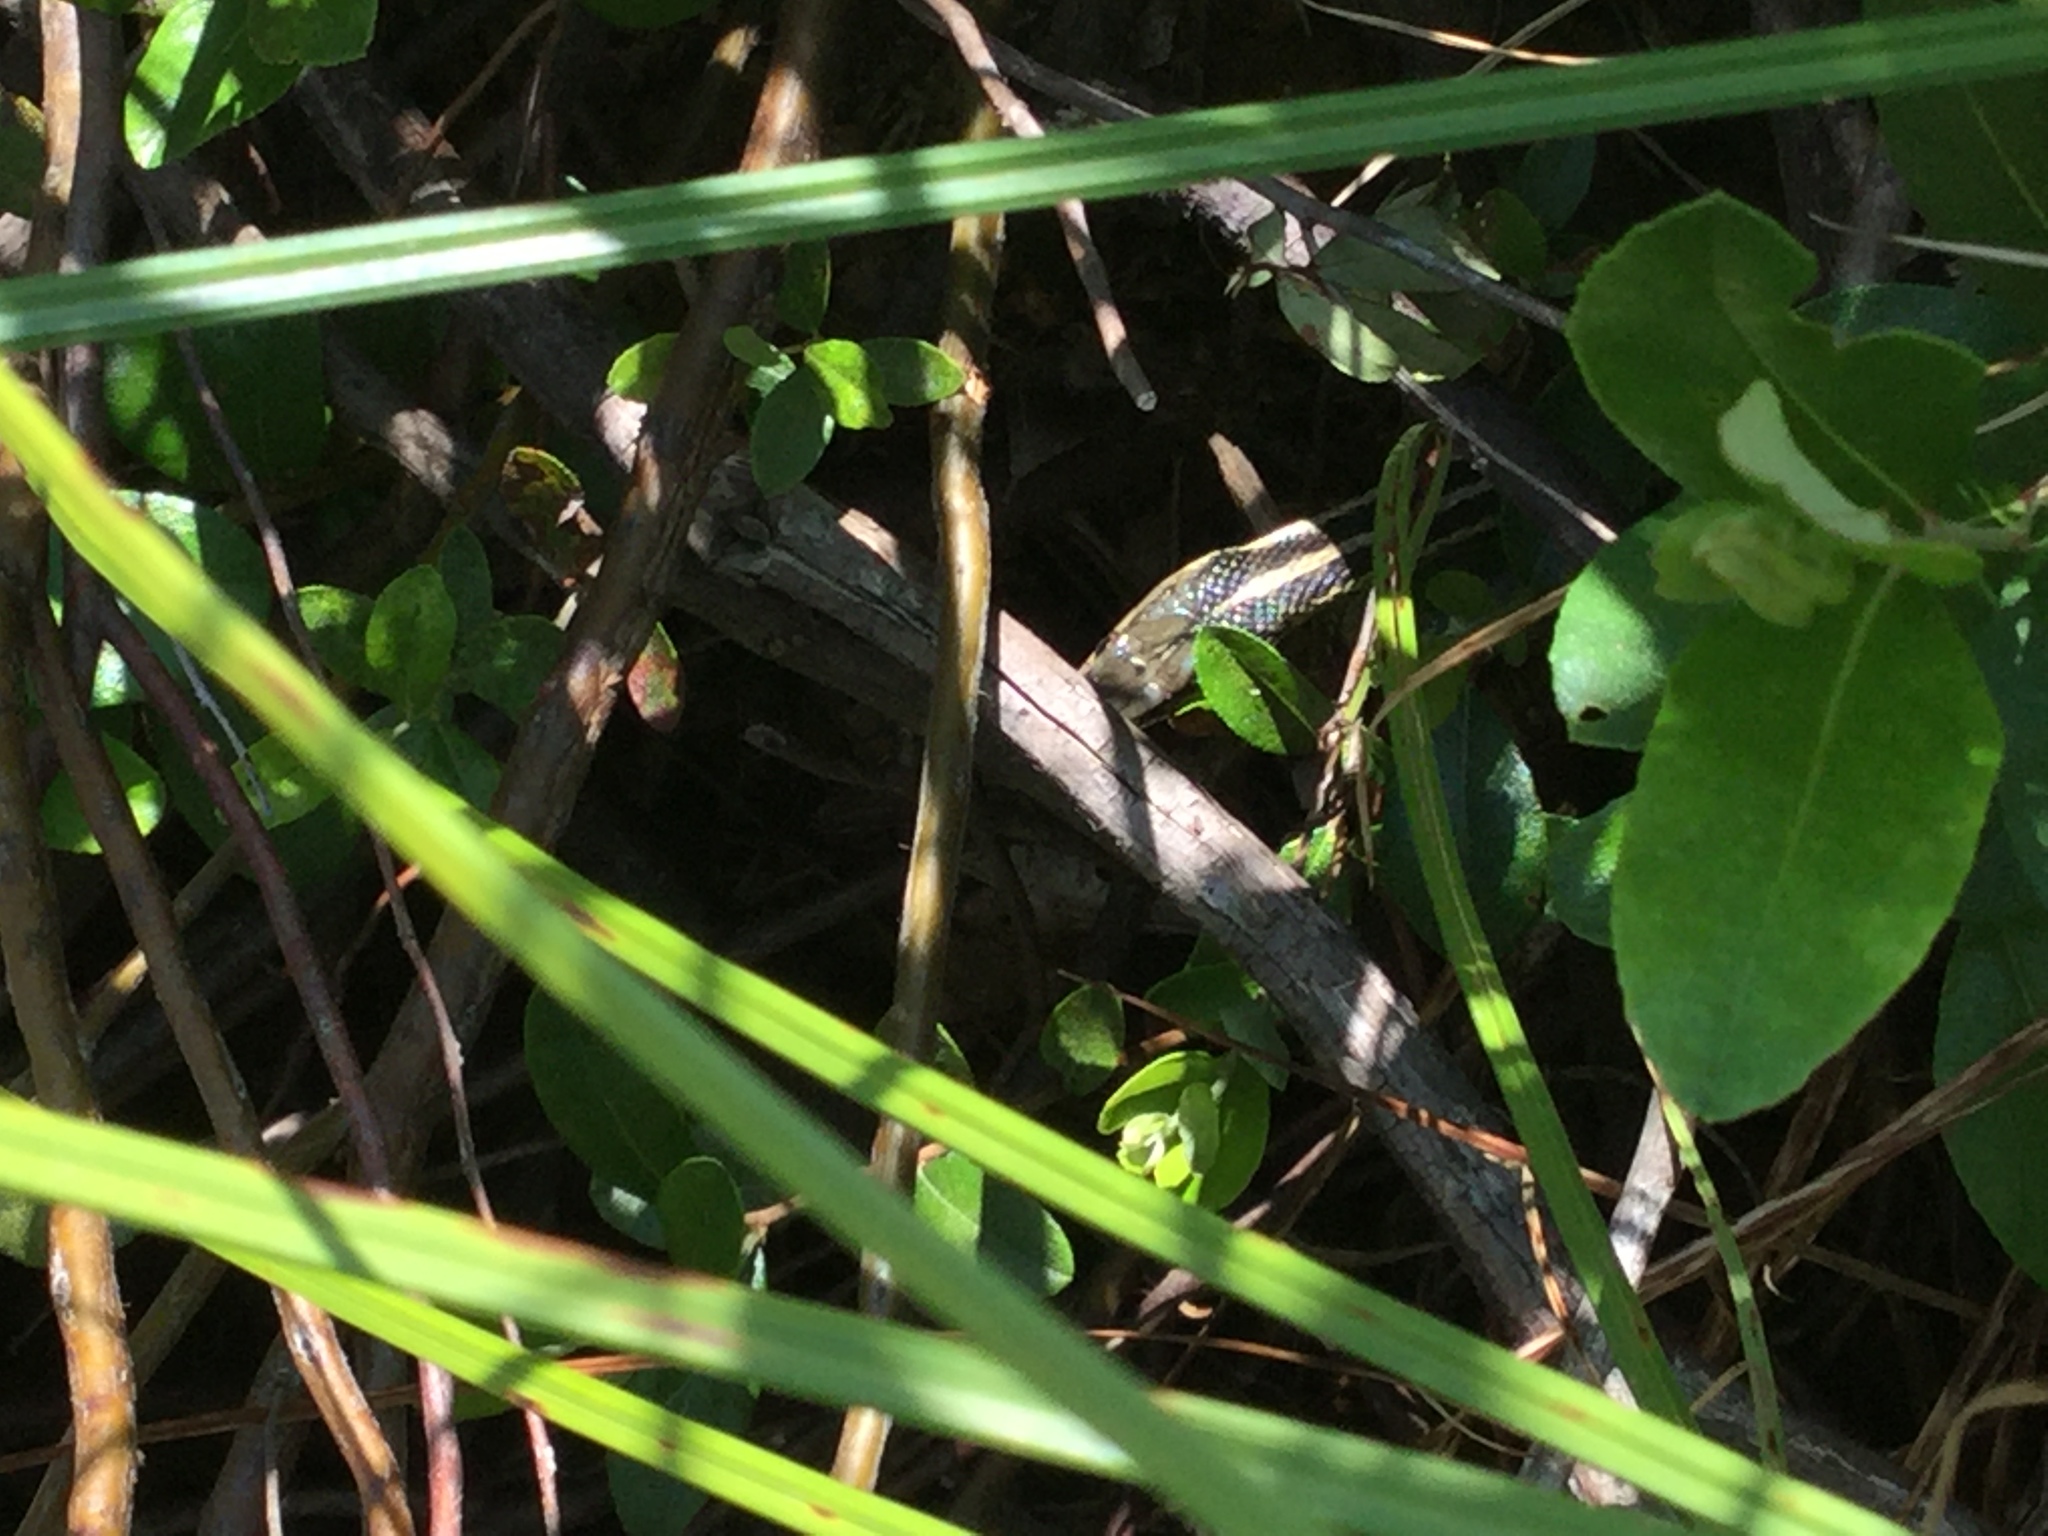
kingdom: Animalia
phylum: Chordata
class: Squamata
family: Colubridae
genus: Thamnophis
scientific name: Thamnophis sirtalis
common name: Common garter snake
